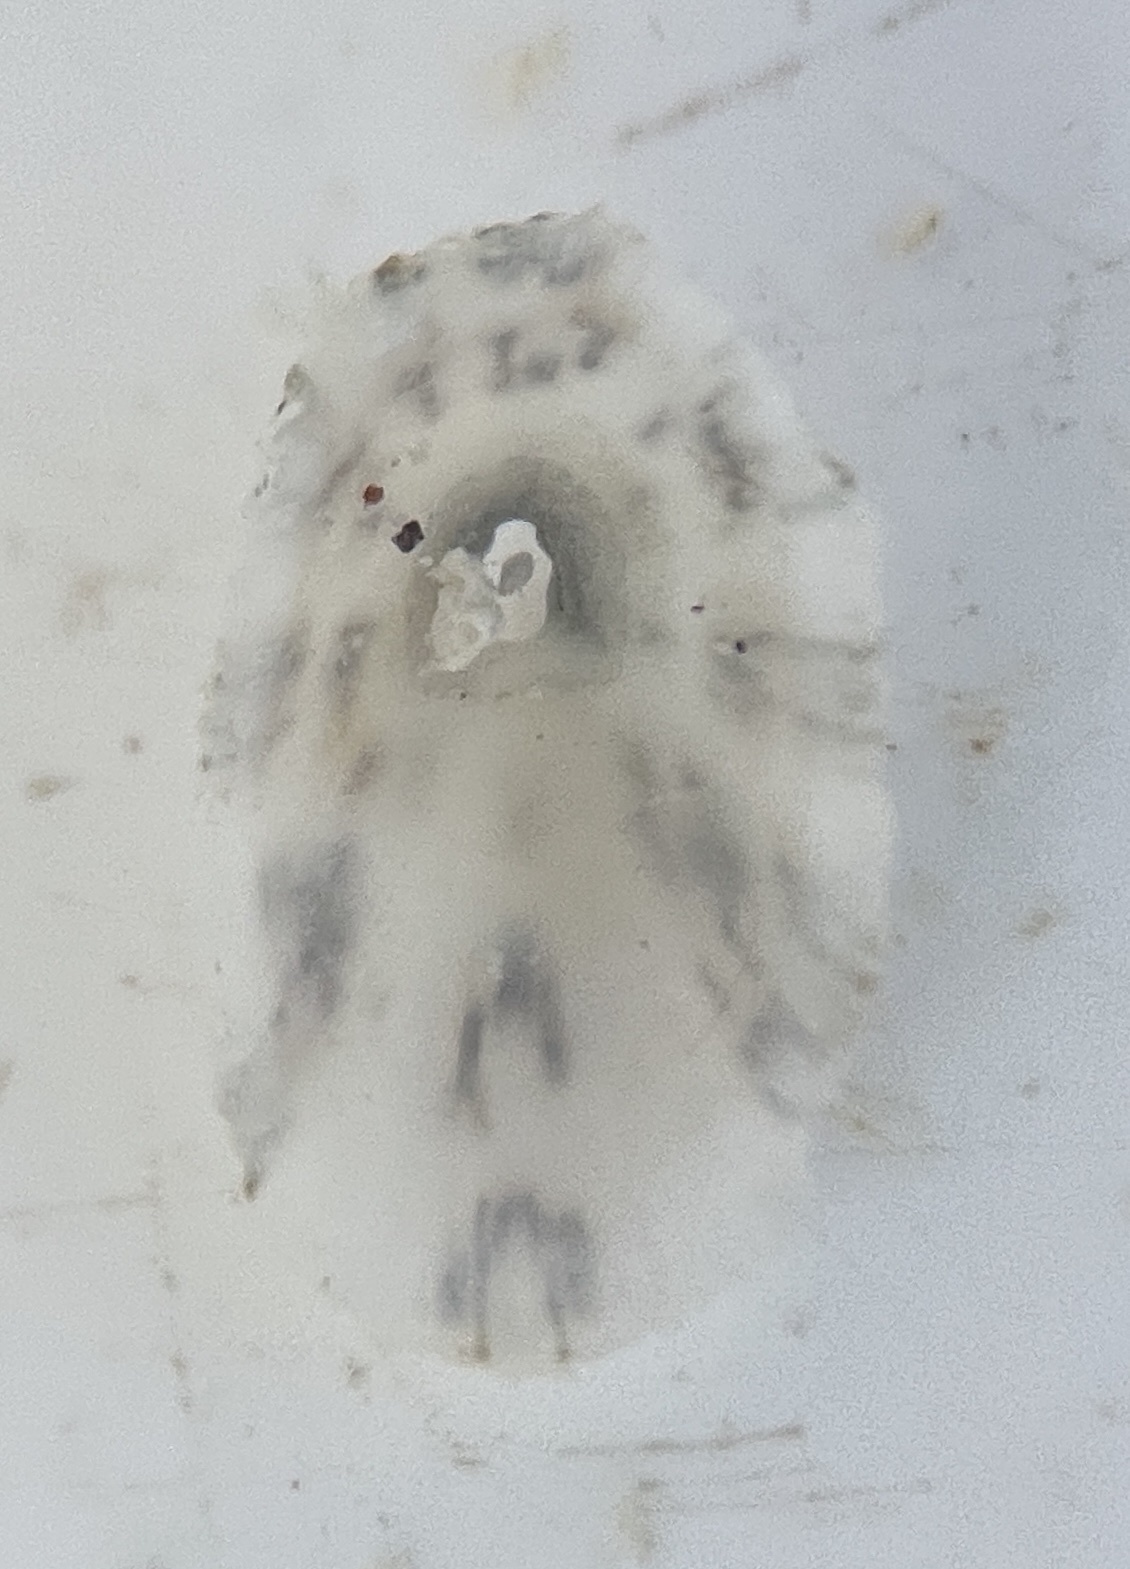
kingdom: Animalia
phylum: Mollusca
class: Gastropoda
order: Lepetellida
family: Fissurellidae
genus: Diodora
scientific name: Diodora dysoni
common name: Dyson's keyhole limpet
